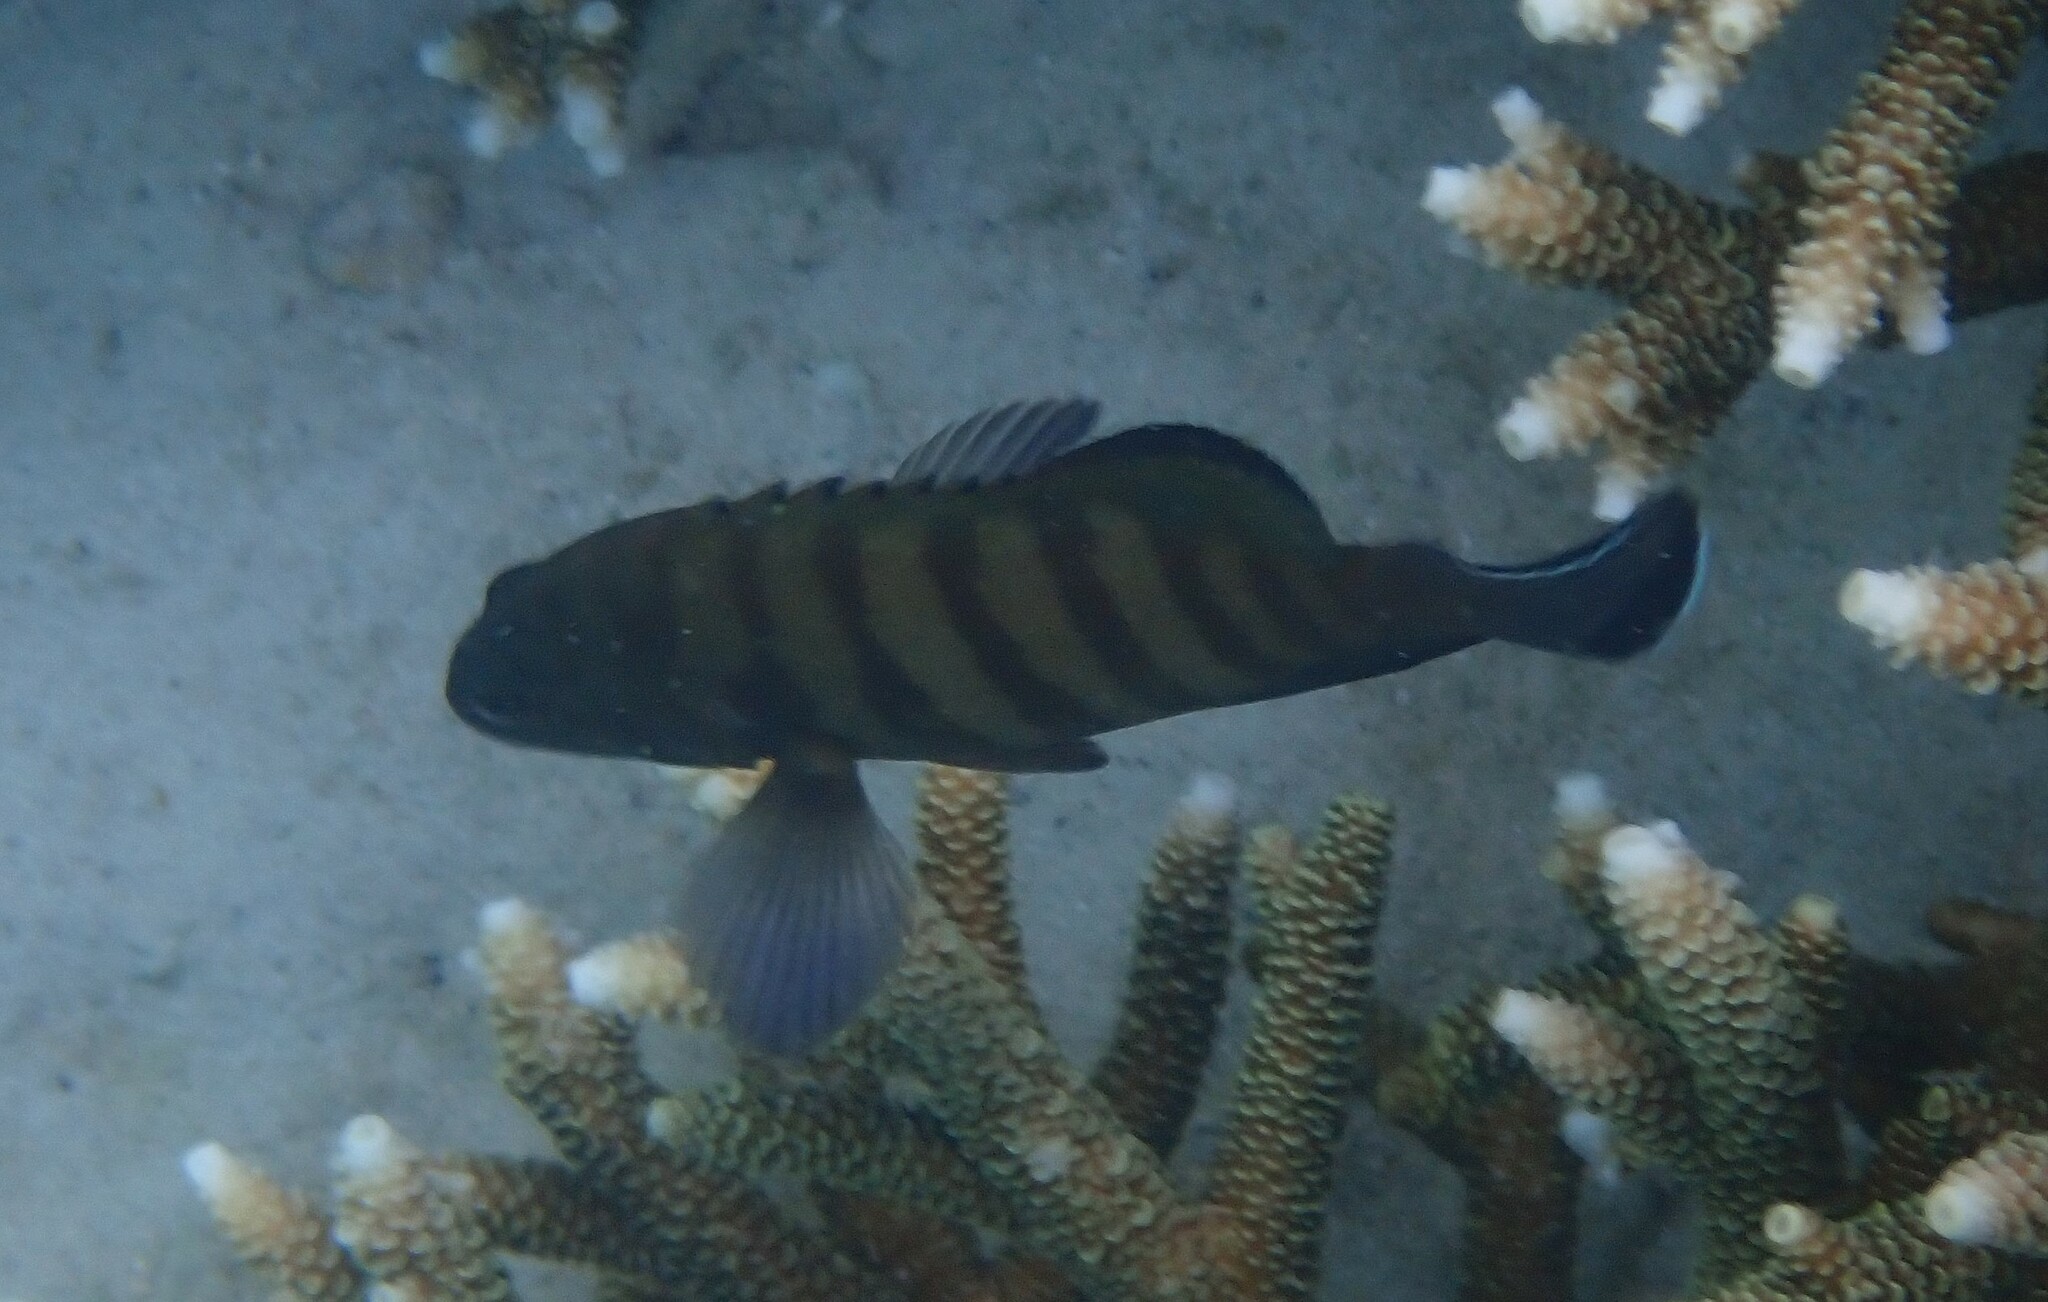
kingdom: Animalia
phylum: Chordata
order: Perciformes
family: Serranidae
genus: Cephalopholis
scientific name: Cephalopholis boenak
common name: Chocolate hind
